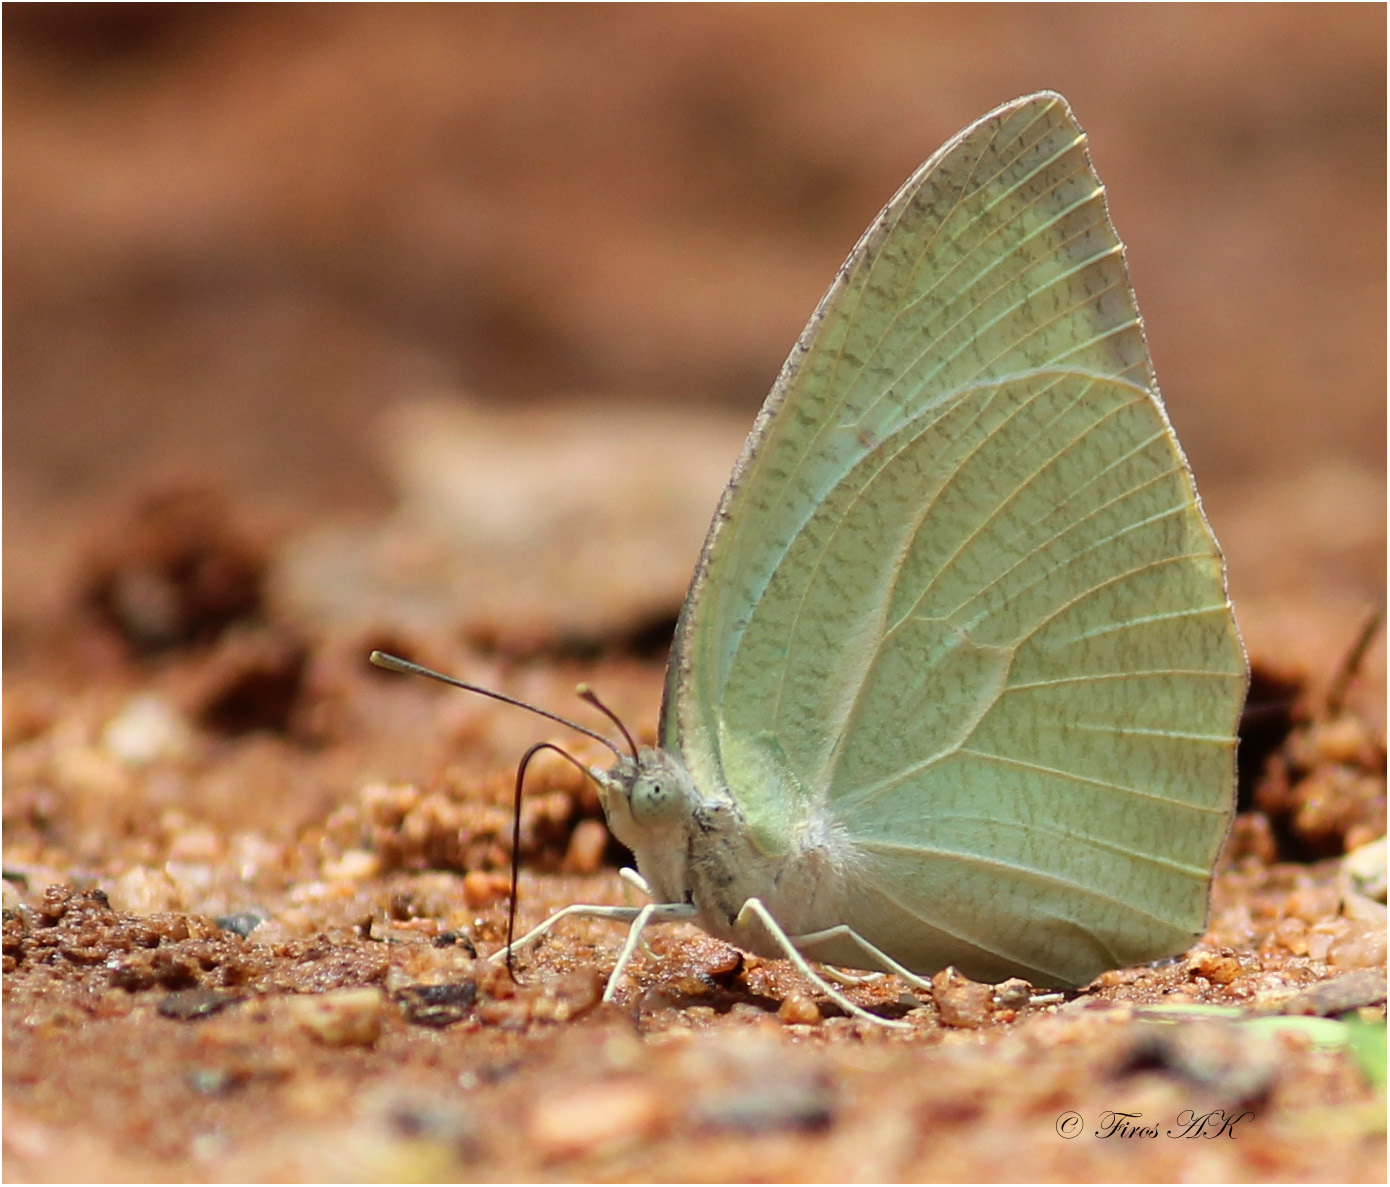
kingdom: Animalia
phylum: Arthropoda
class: Insecta
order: Lepidoptera
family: Pieridae
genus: Catopsilia
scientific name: Catopsilia pyranthe
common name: Mottled emigrant
